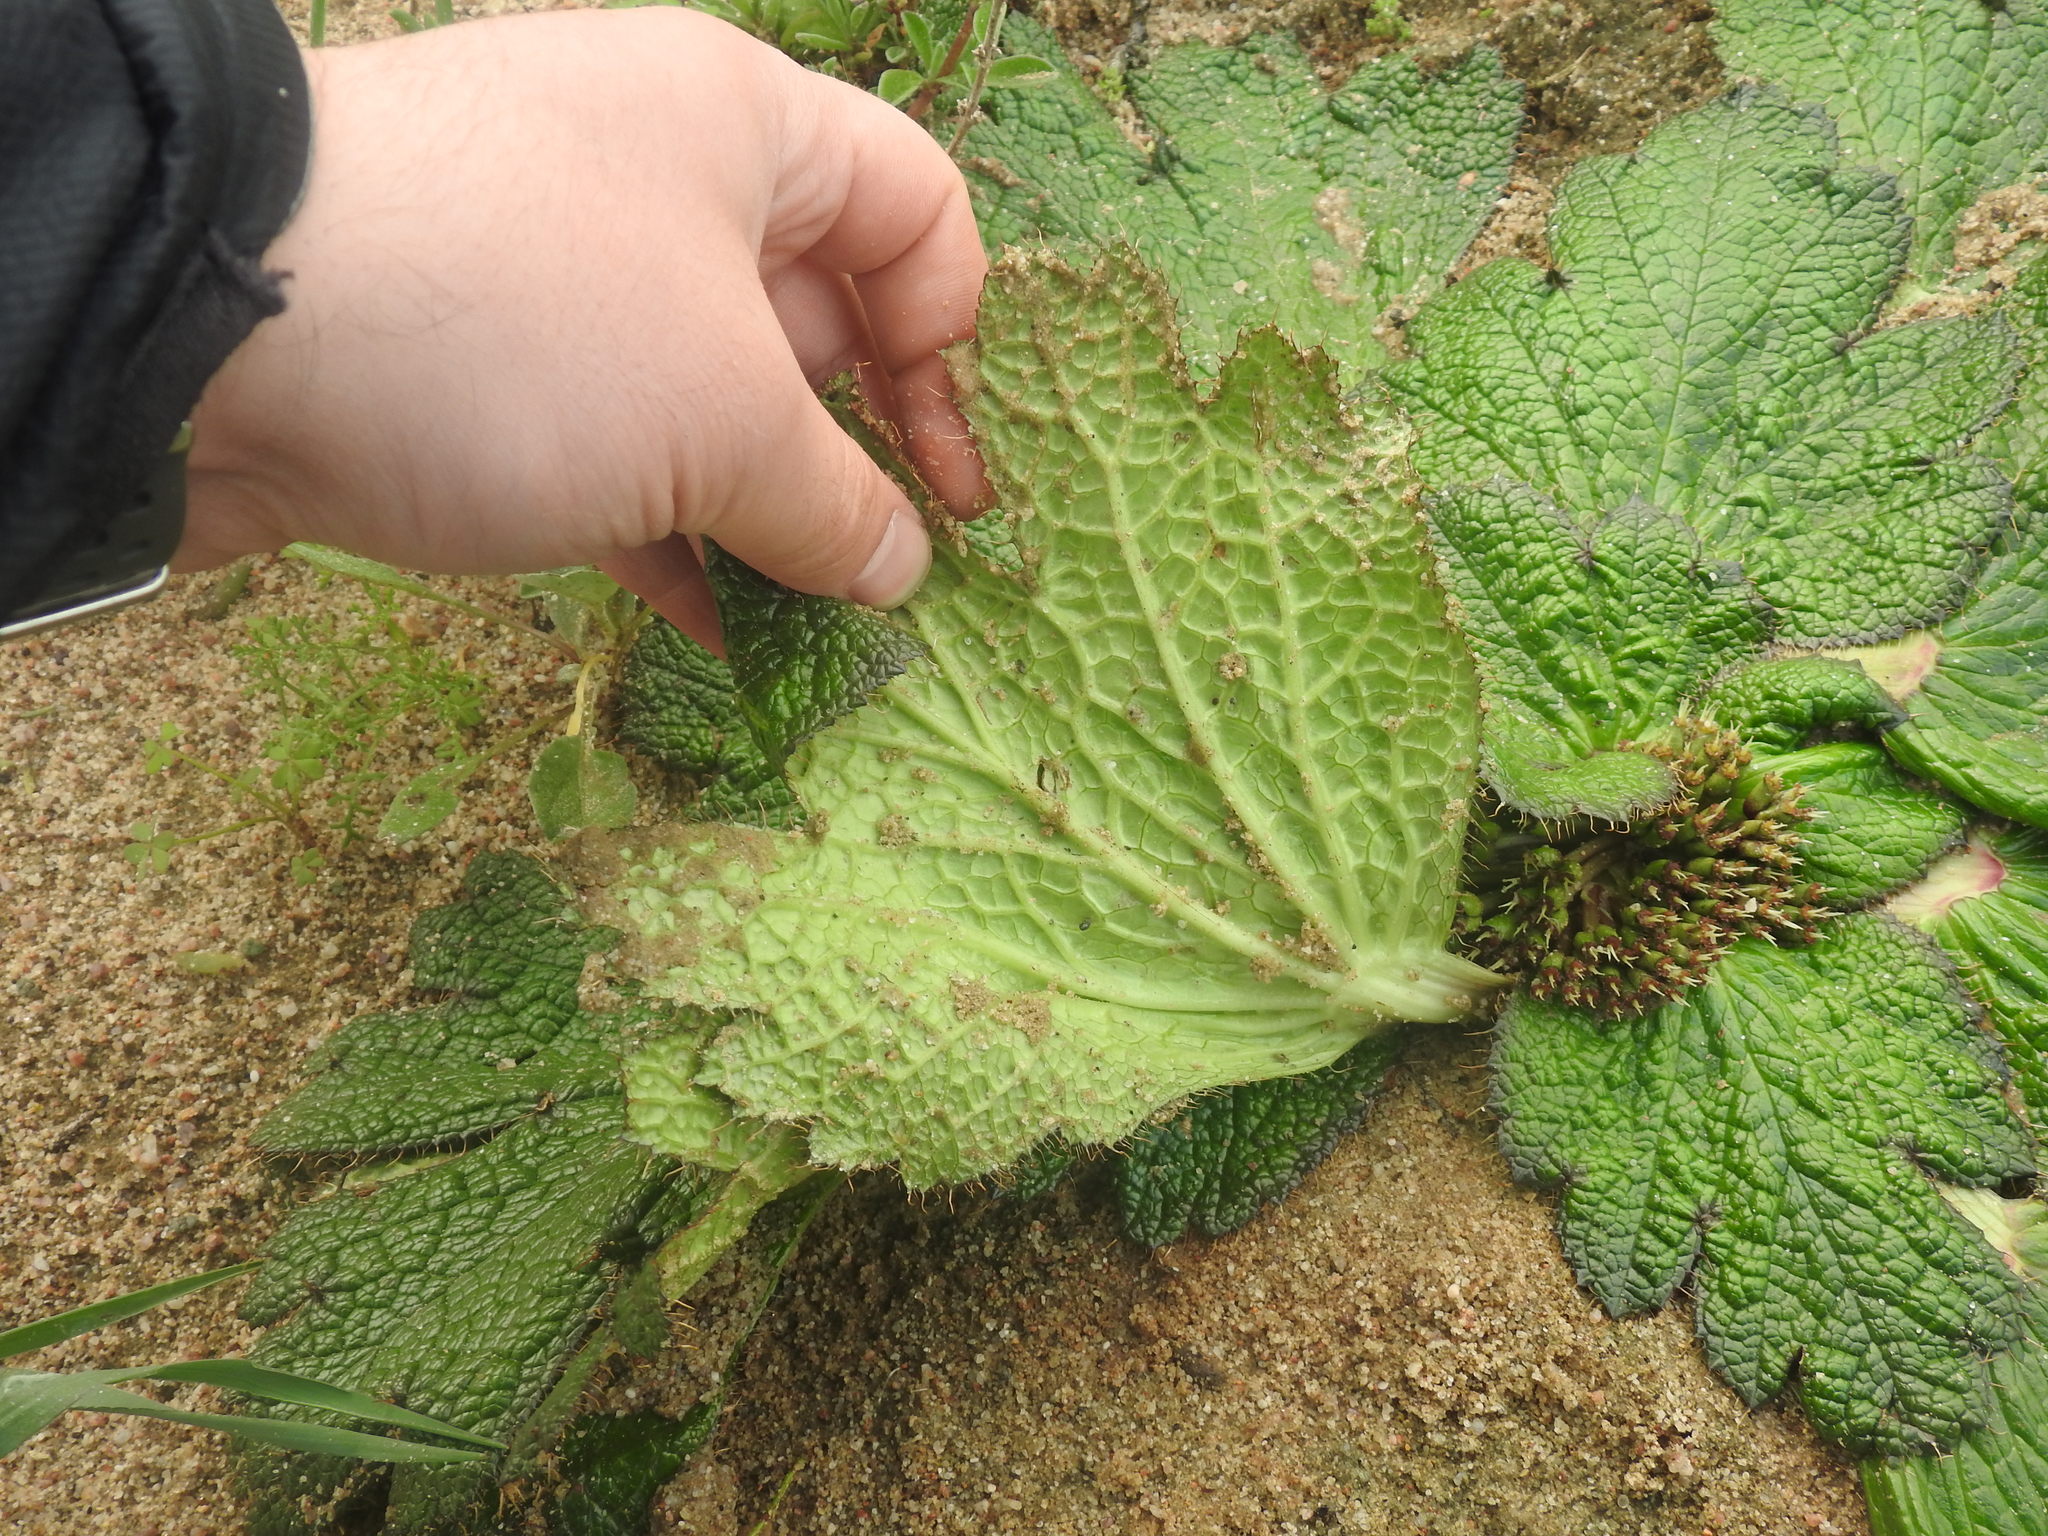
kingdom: Plantae
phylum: Tracheophyta
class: Magnoliopsida
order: Apiales
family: Apiaceae
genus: Arctopus
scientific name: Arctopus dregei
